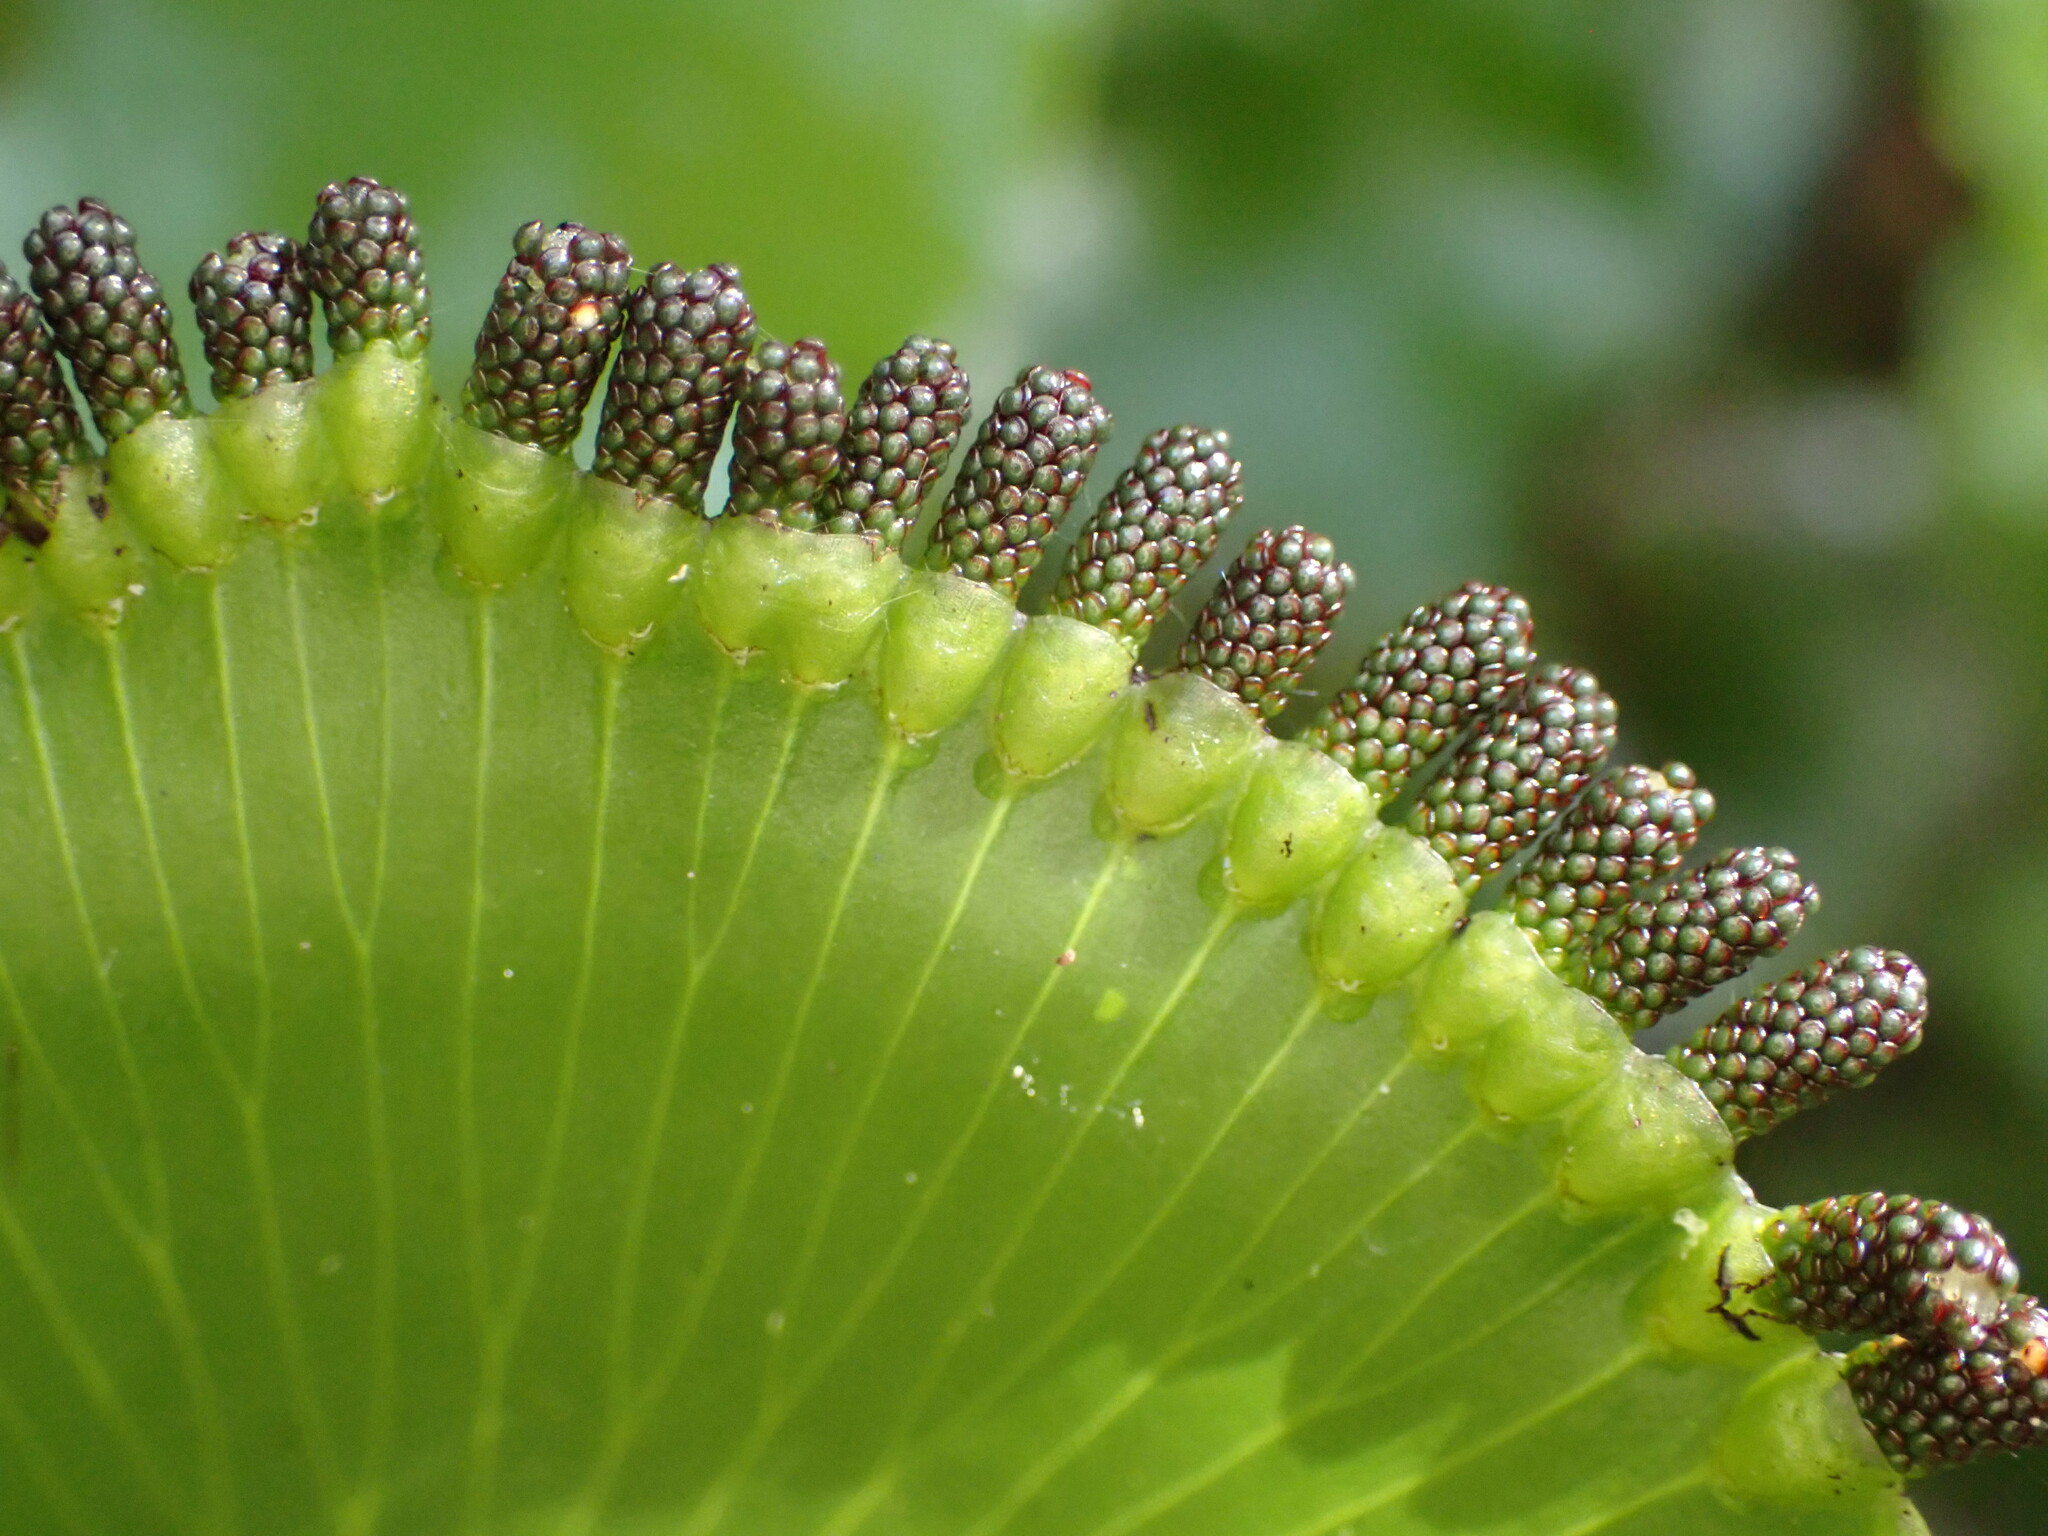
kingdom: Plantae
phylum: Tracheophyta
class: Polypodiopsida
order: Hymenophyllales
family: Hymenophyllaceae
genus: Hymenophyllum
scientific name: Hymenophyllum nephrophyllum
